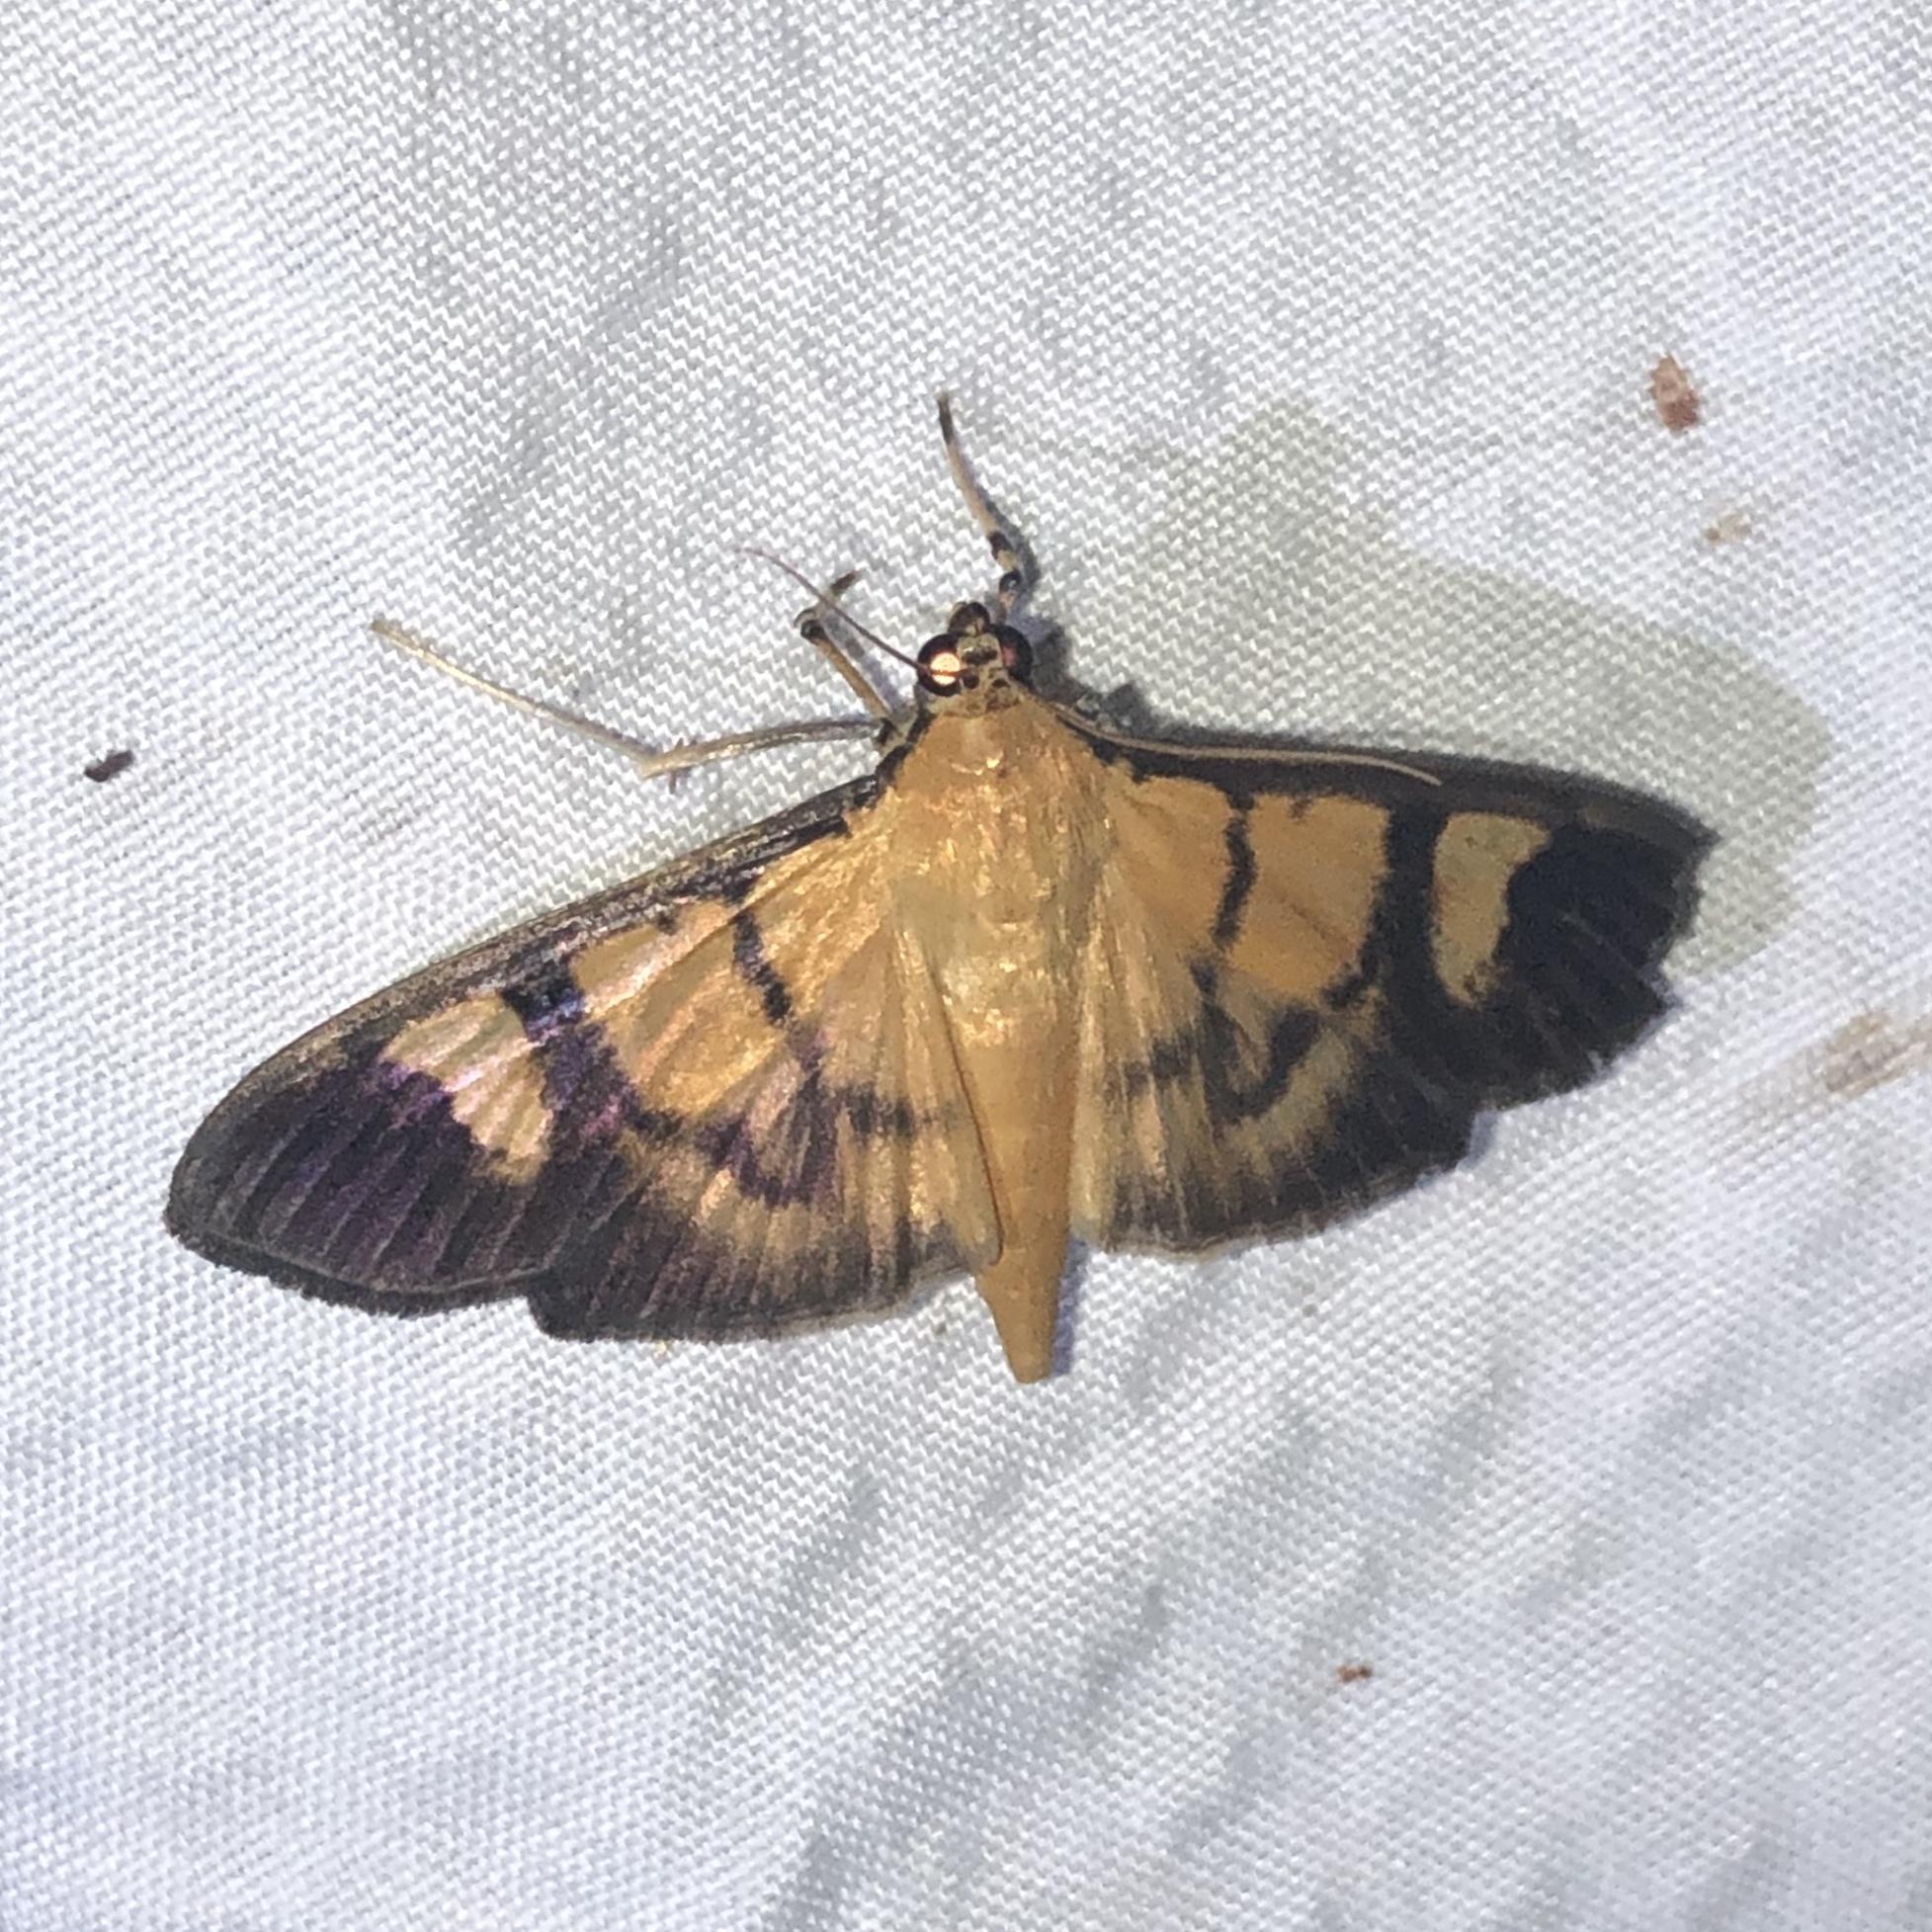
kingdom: Animalia
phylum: Arthropoda
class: Insecta
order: Lepidoptera
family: Crambidae
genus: Phostria
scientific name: Phostria dohrni
